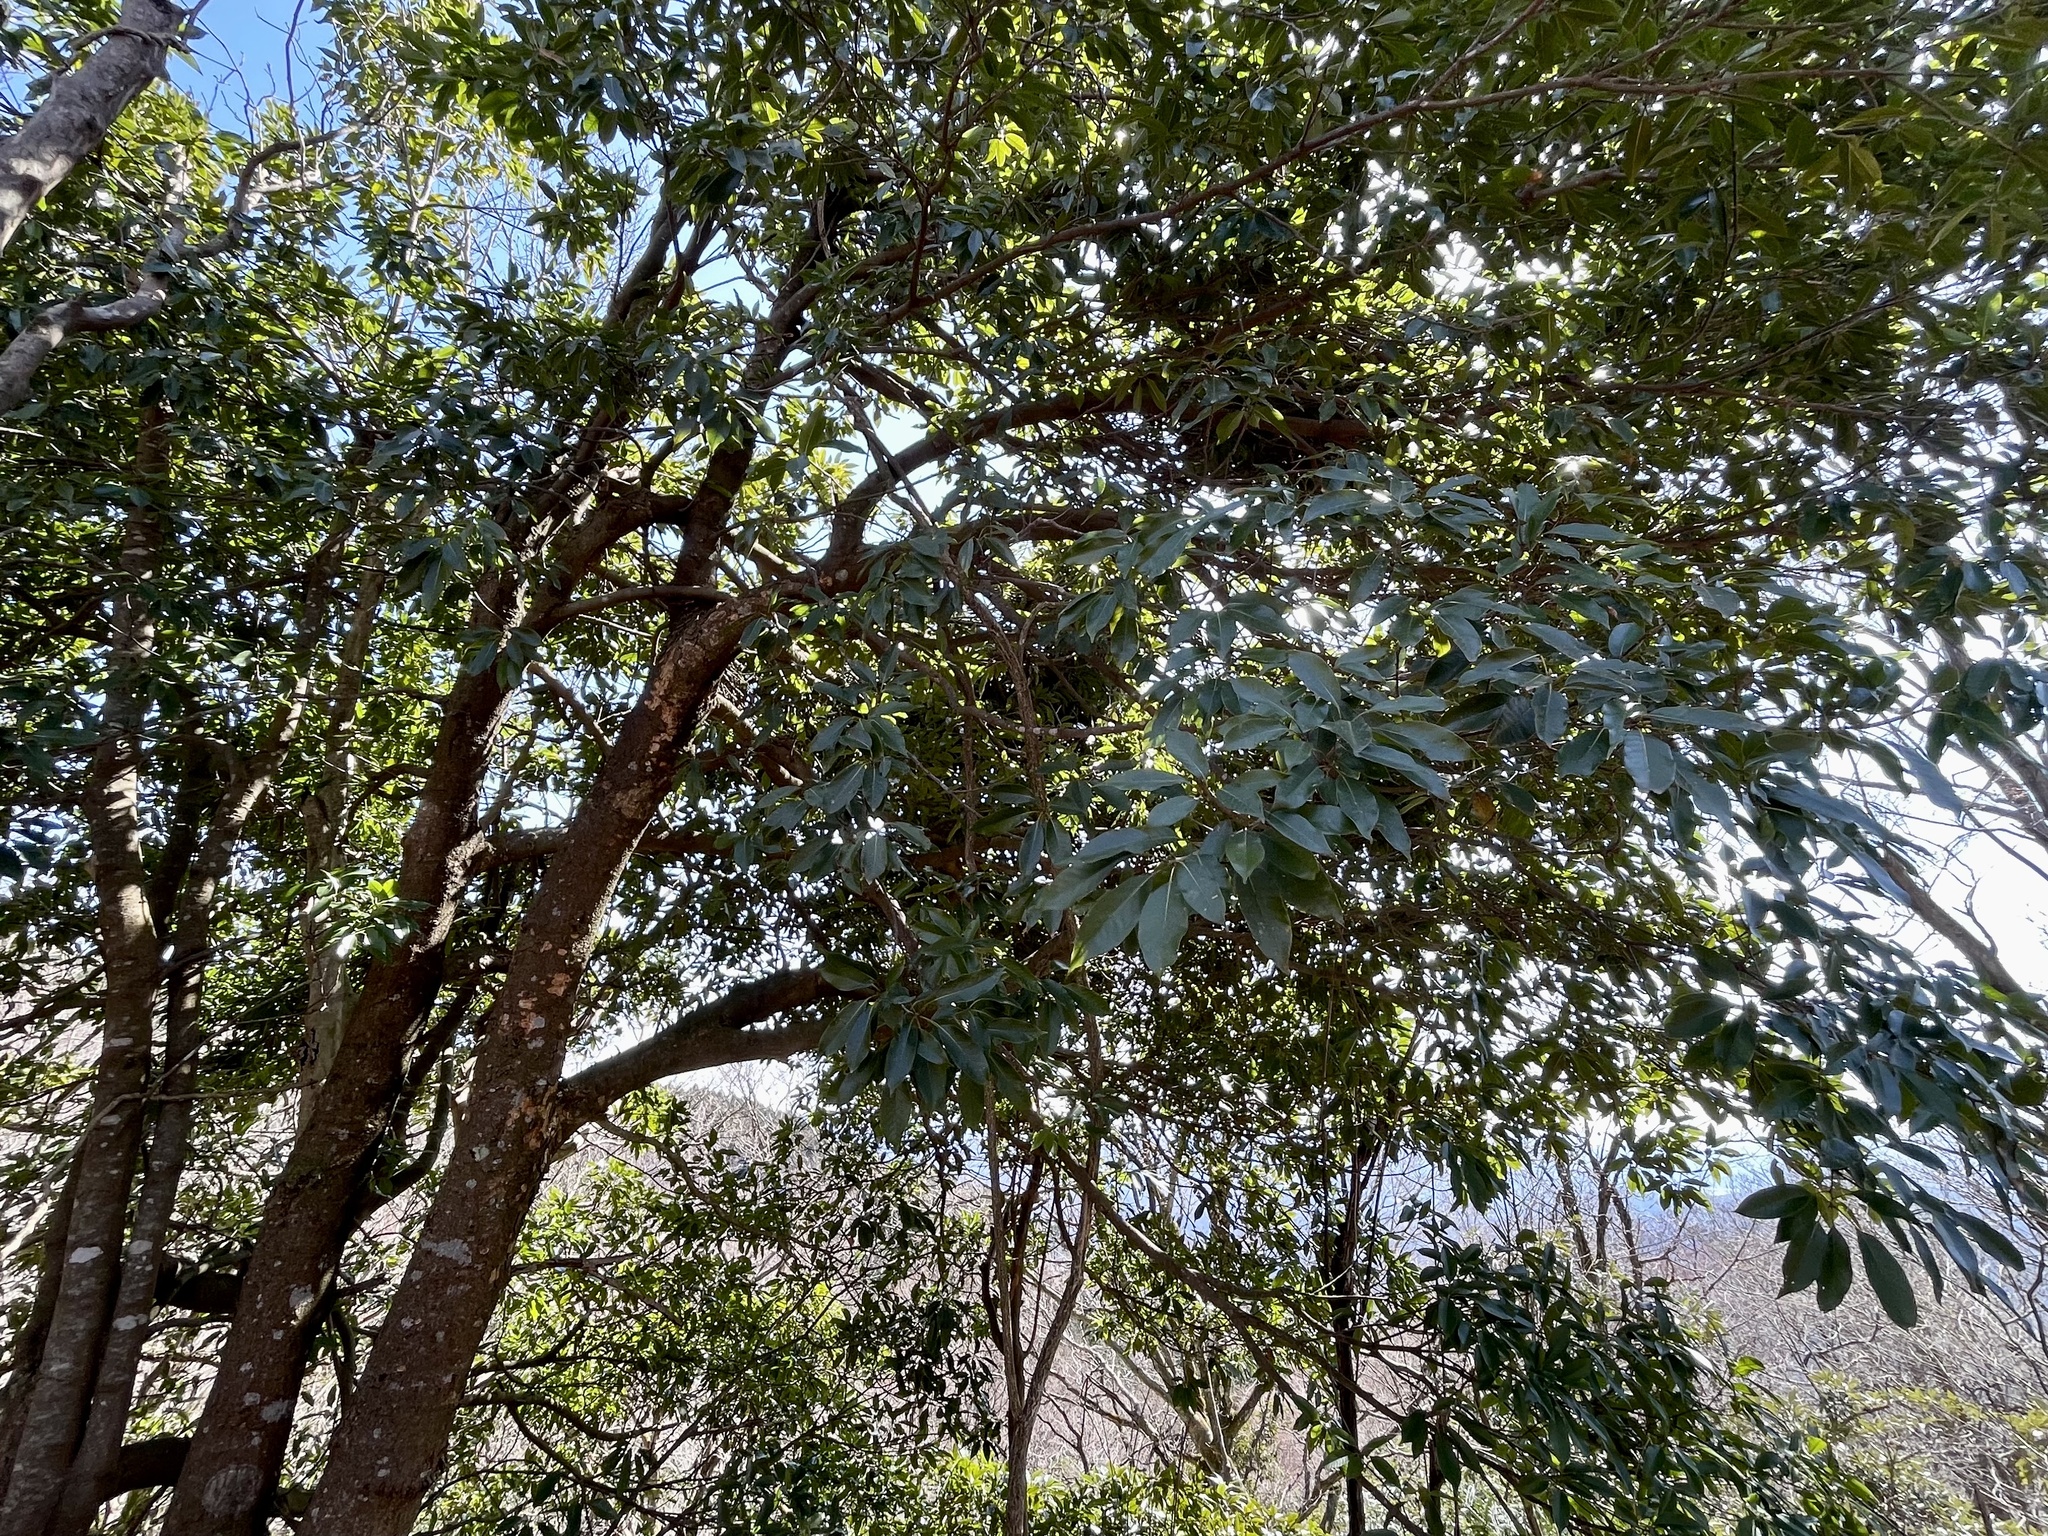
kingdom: Plantae
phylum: Tracheophyta
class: Magnoliopsida
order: Fagales
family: Fagaceae
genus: Quercus
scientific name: Quercus acuta
